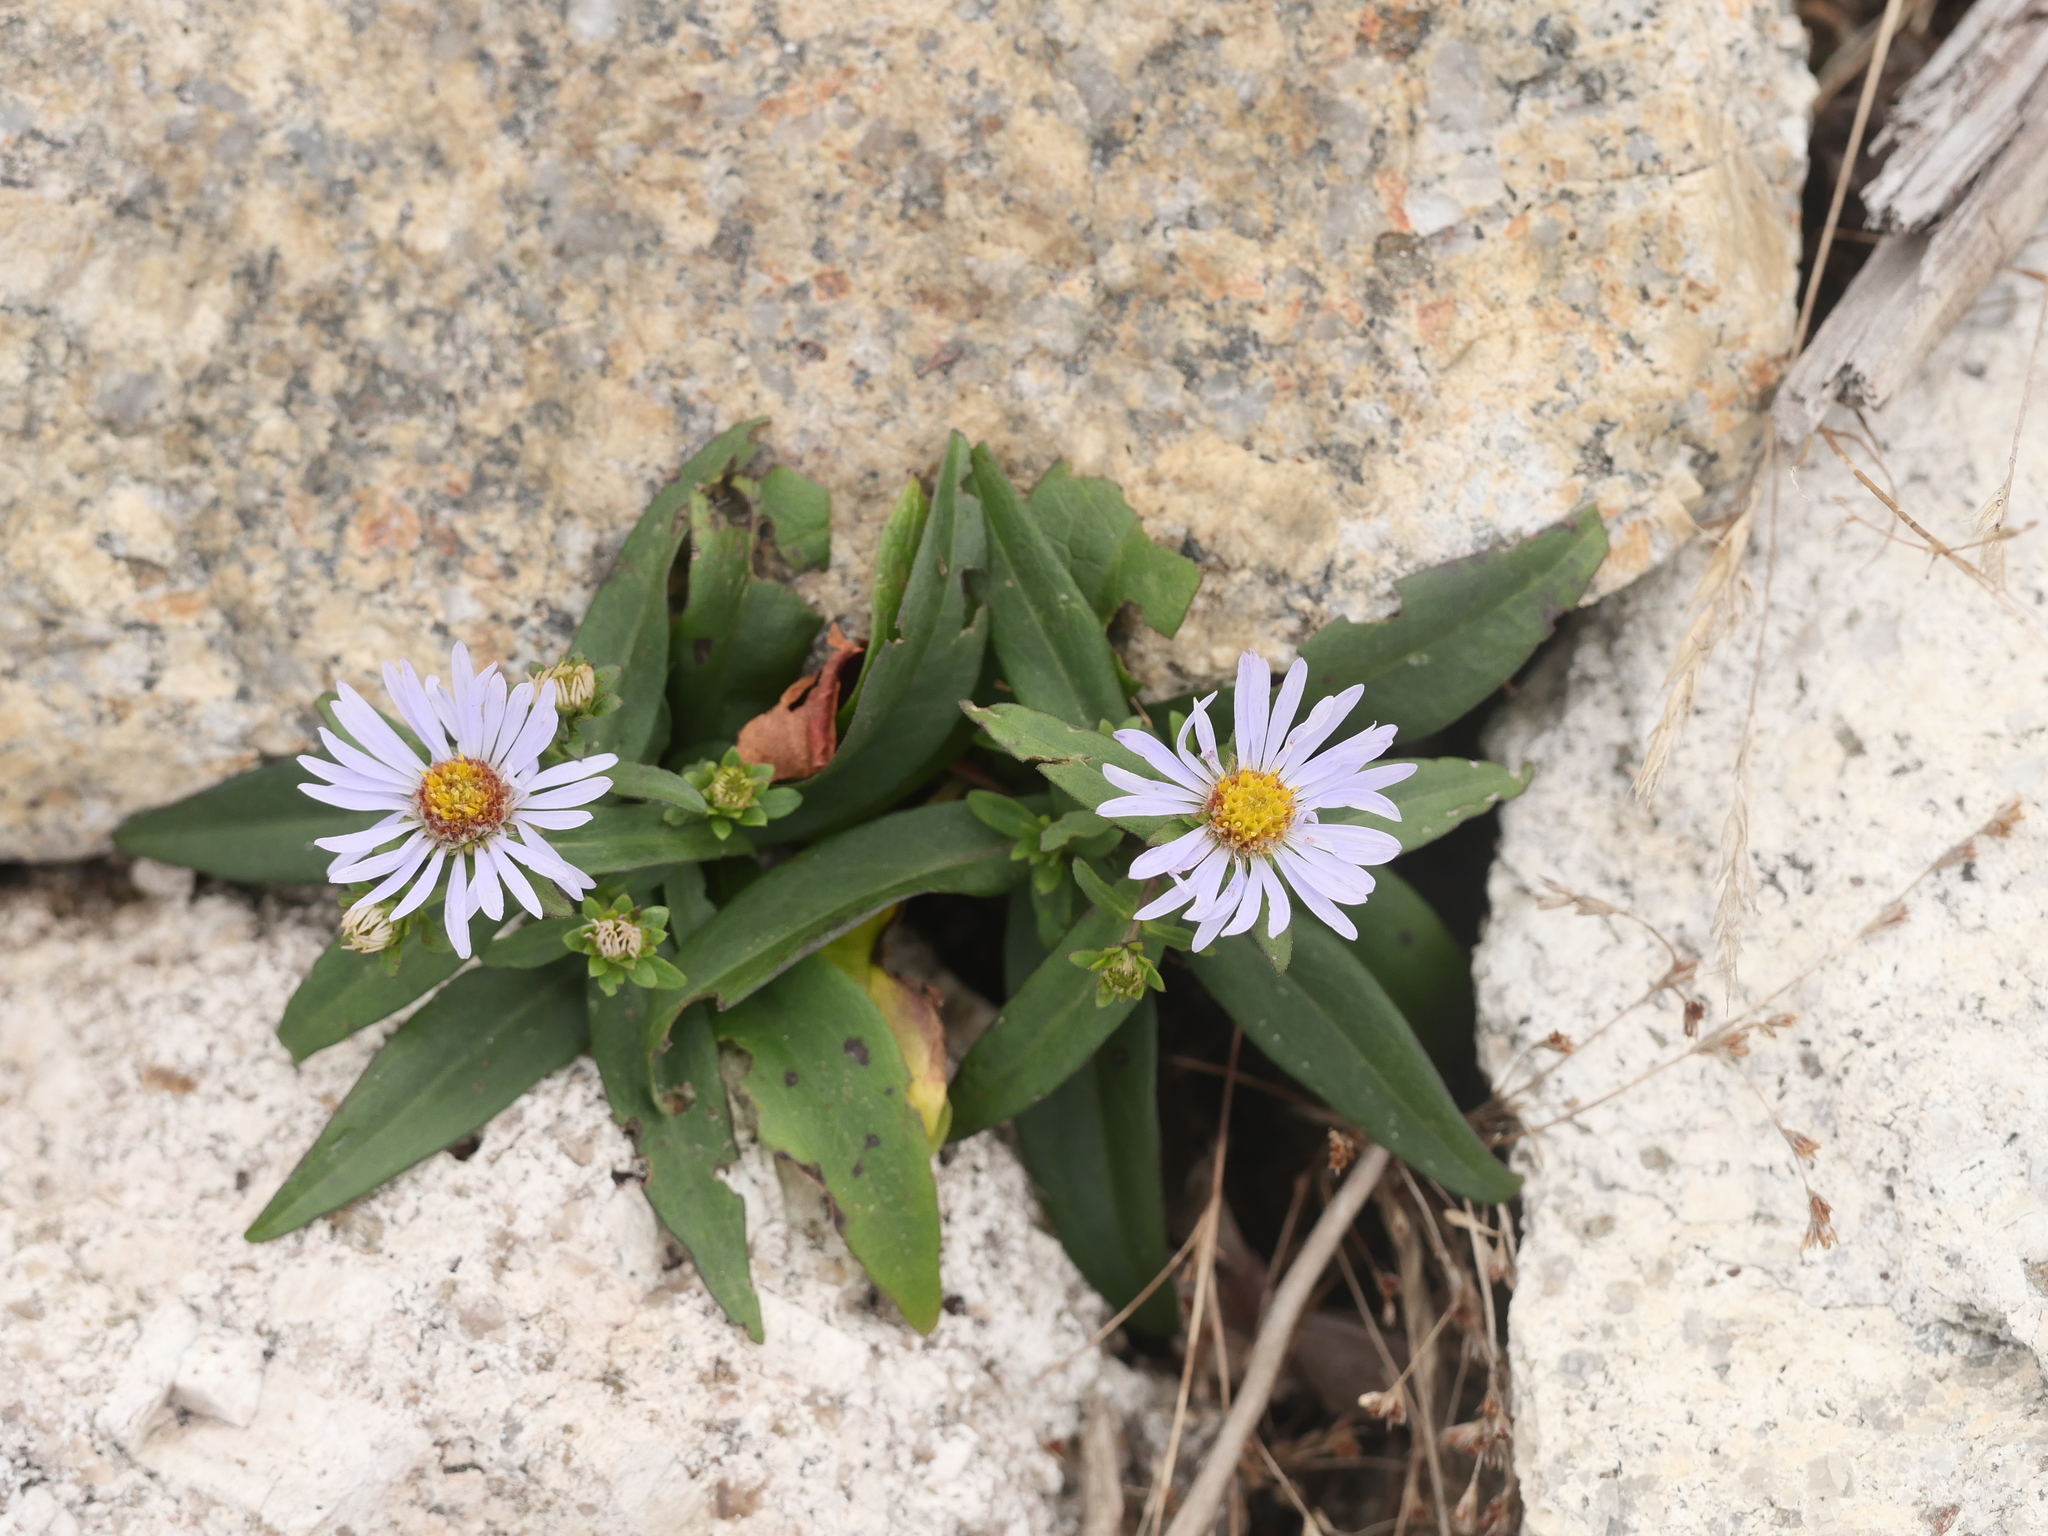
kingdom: Plantae
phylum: Tracheophyta
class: Magnoliopsida
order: Asterales
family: Asteraceae
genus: Symphyotrichum
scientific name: Symphyotrichum novi-belgii
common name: Michaelmas daisy
